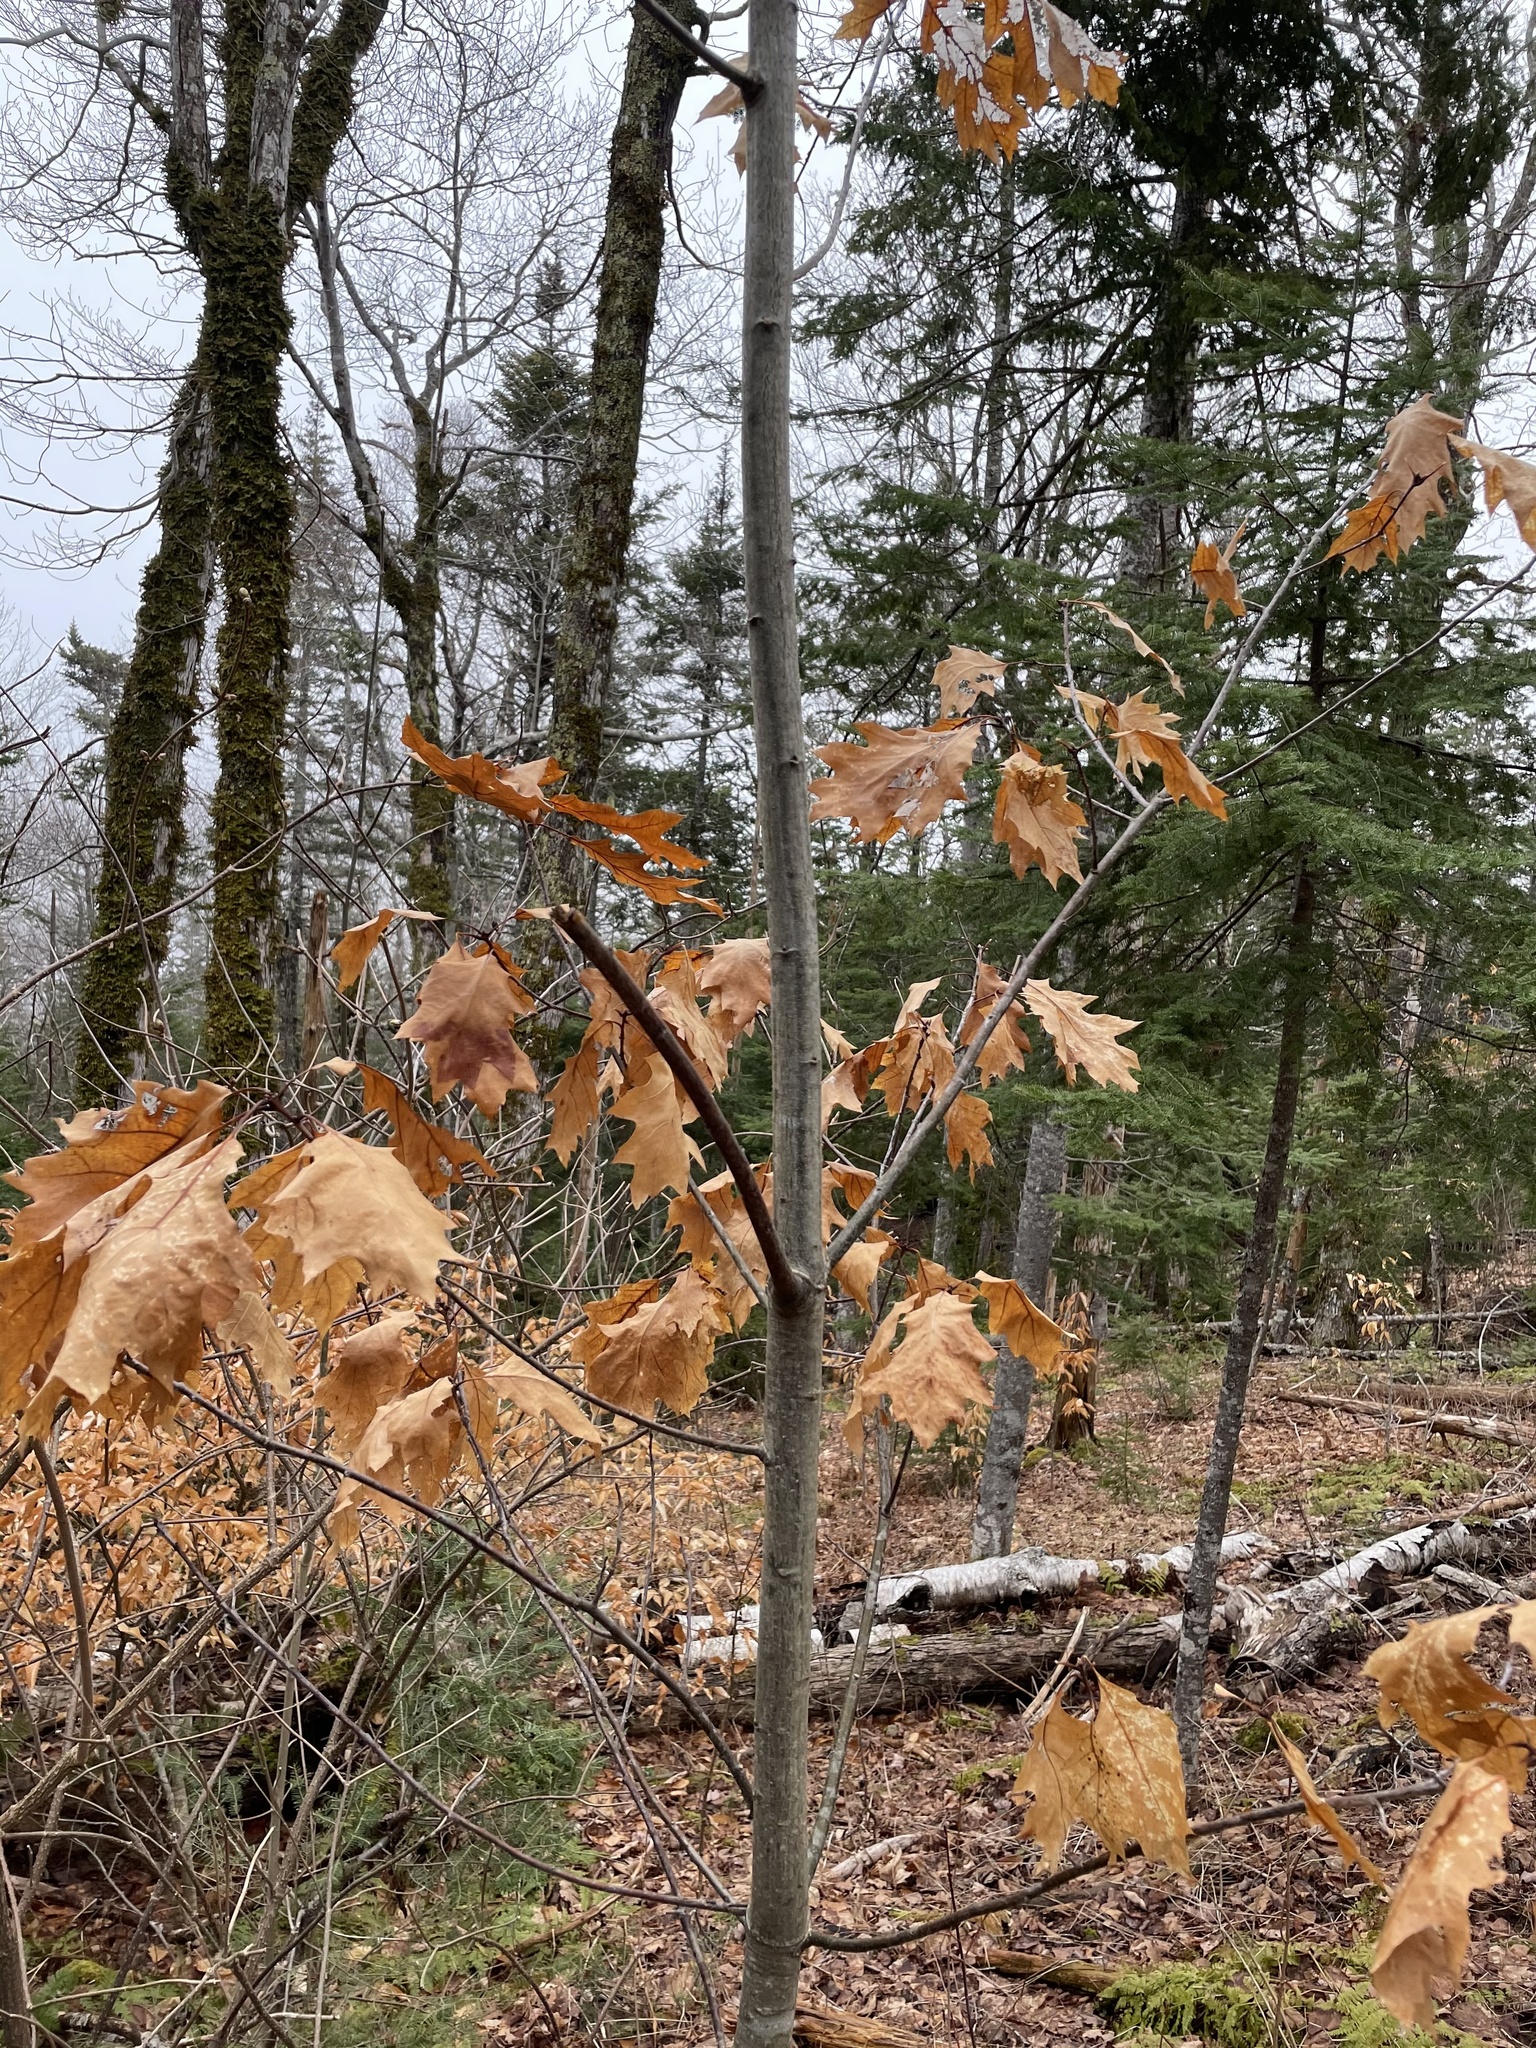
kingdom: Plantae
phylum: Tracheophyta
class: Magnoliopsida
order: Fagales
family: Fagaceae
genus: Quercus
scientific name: Quercus rubra
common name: Red oak
